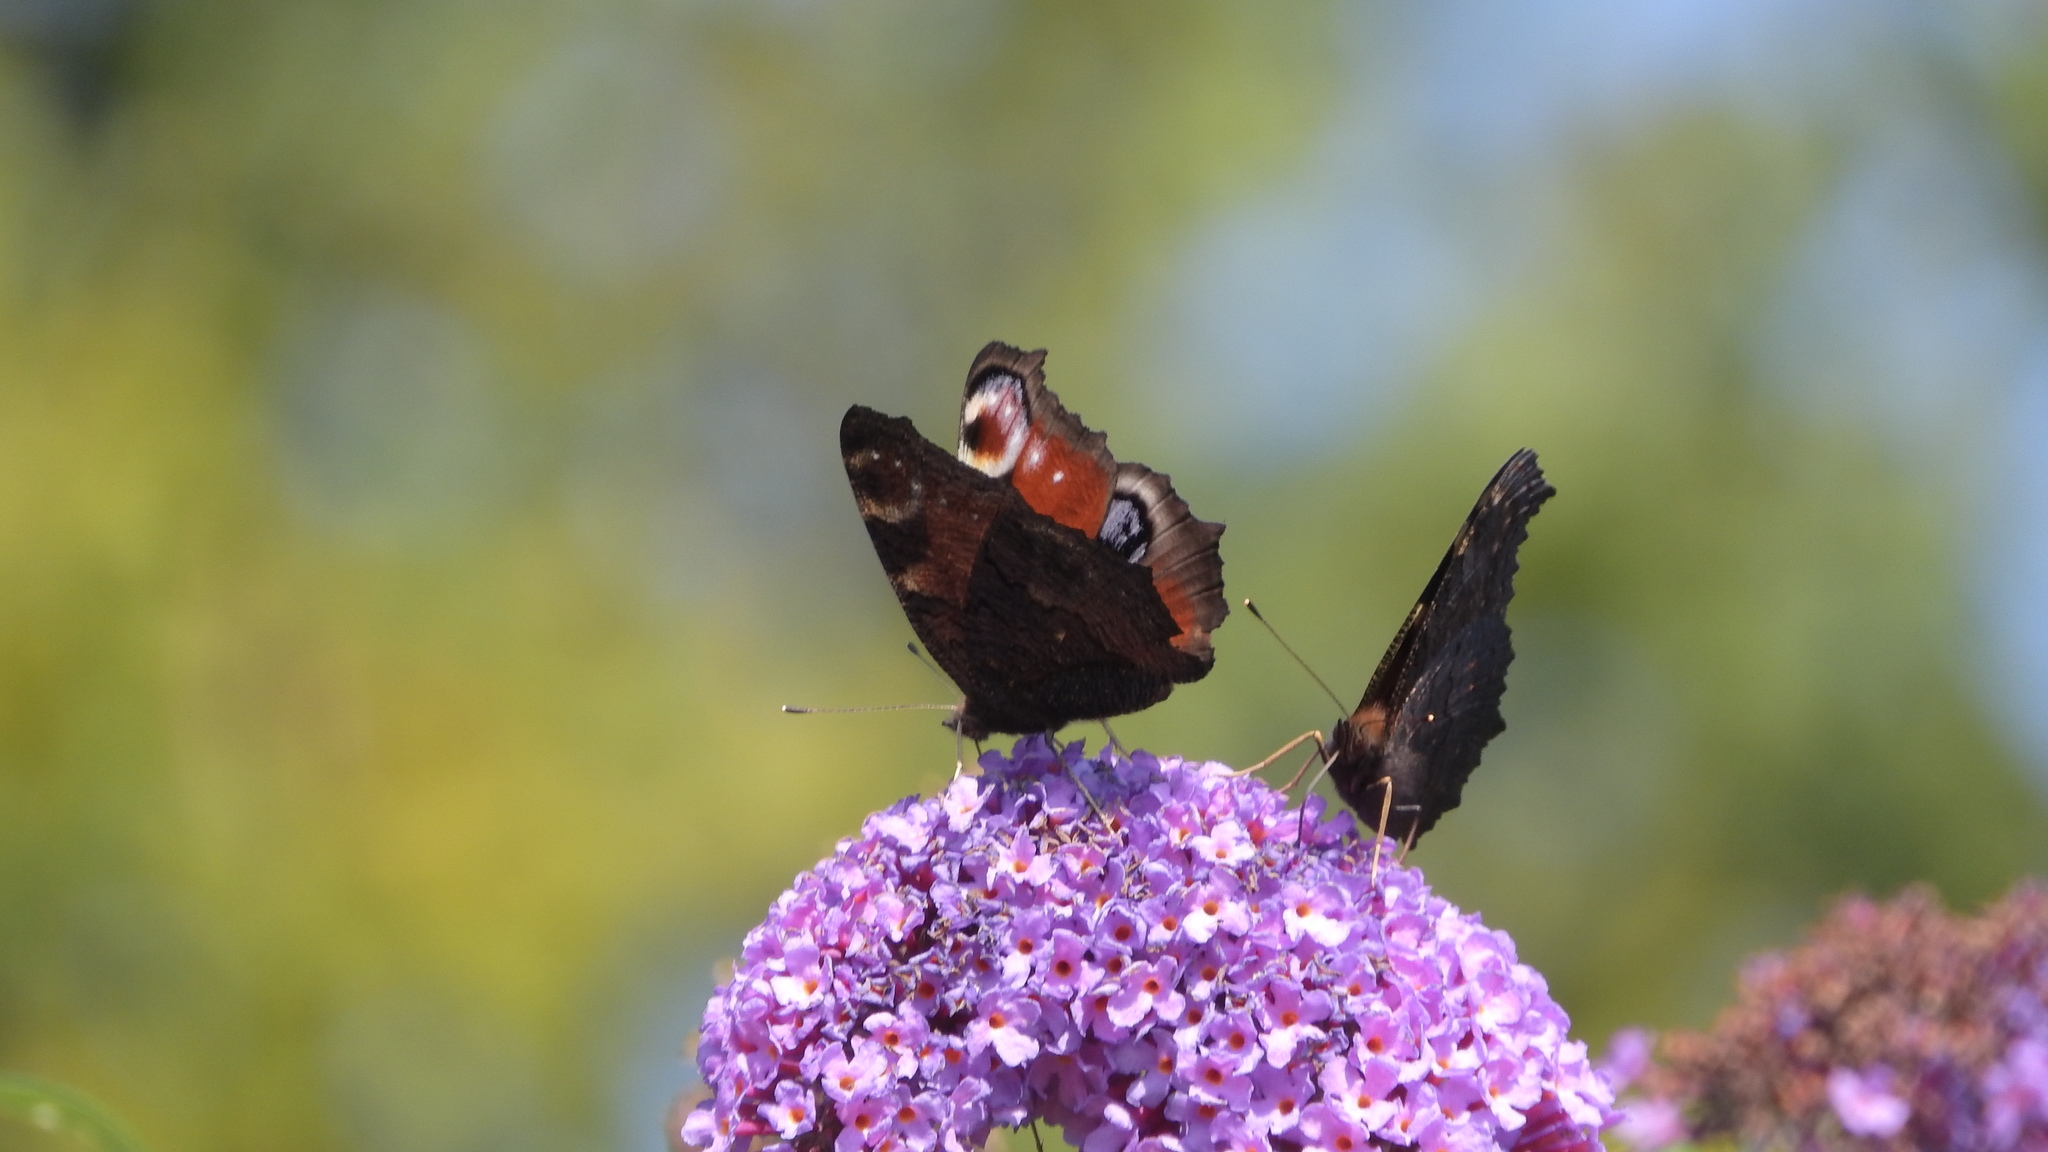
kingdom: Animalia
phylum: Arthropoda
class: Insecta
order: Lepidoptera
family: Nymphalidae
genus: Aglais
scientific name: Aglais io
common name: Peacock
